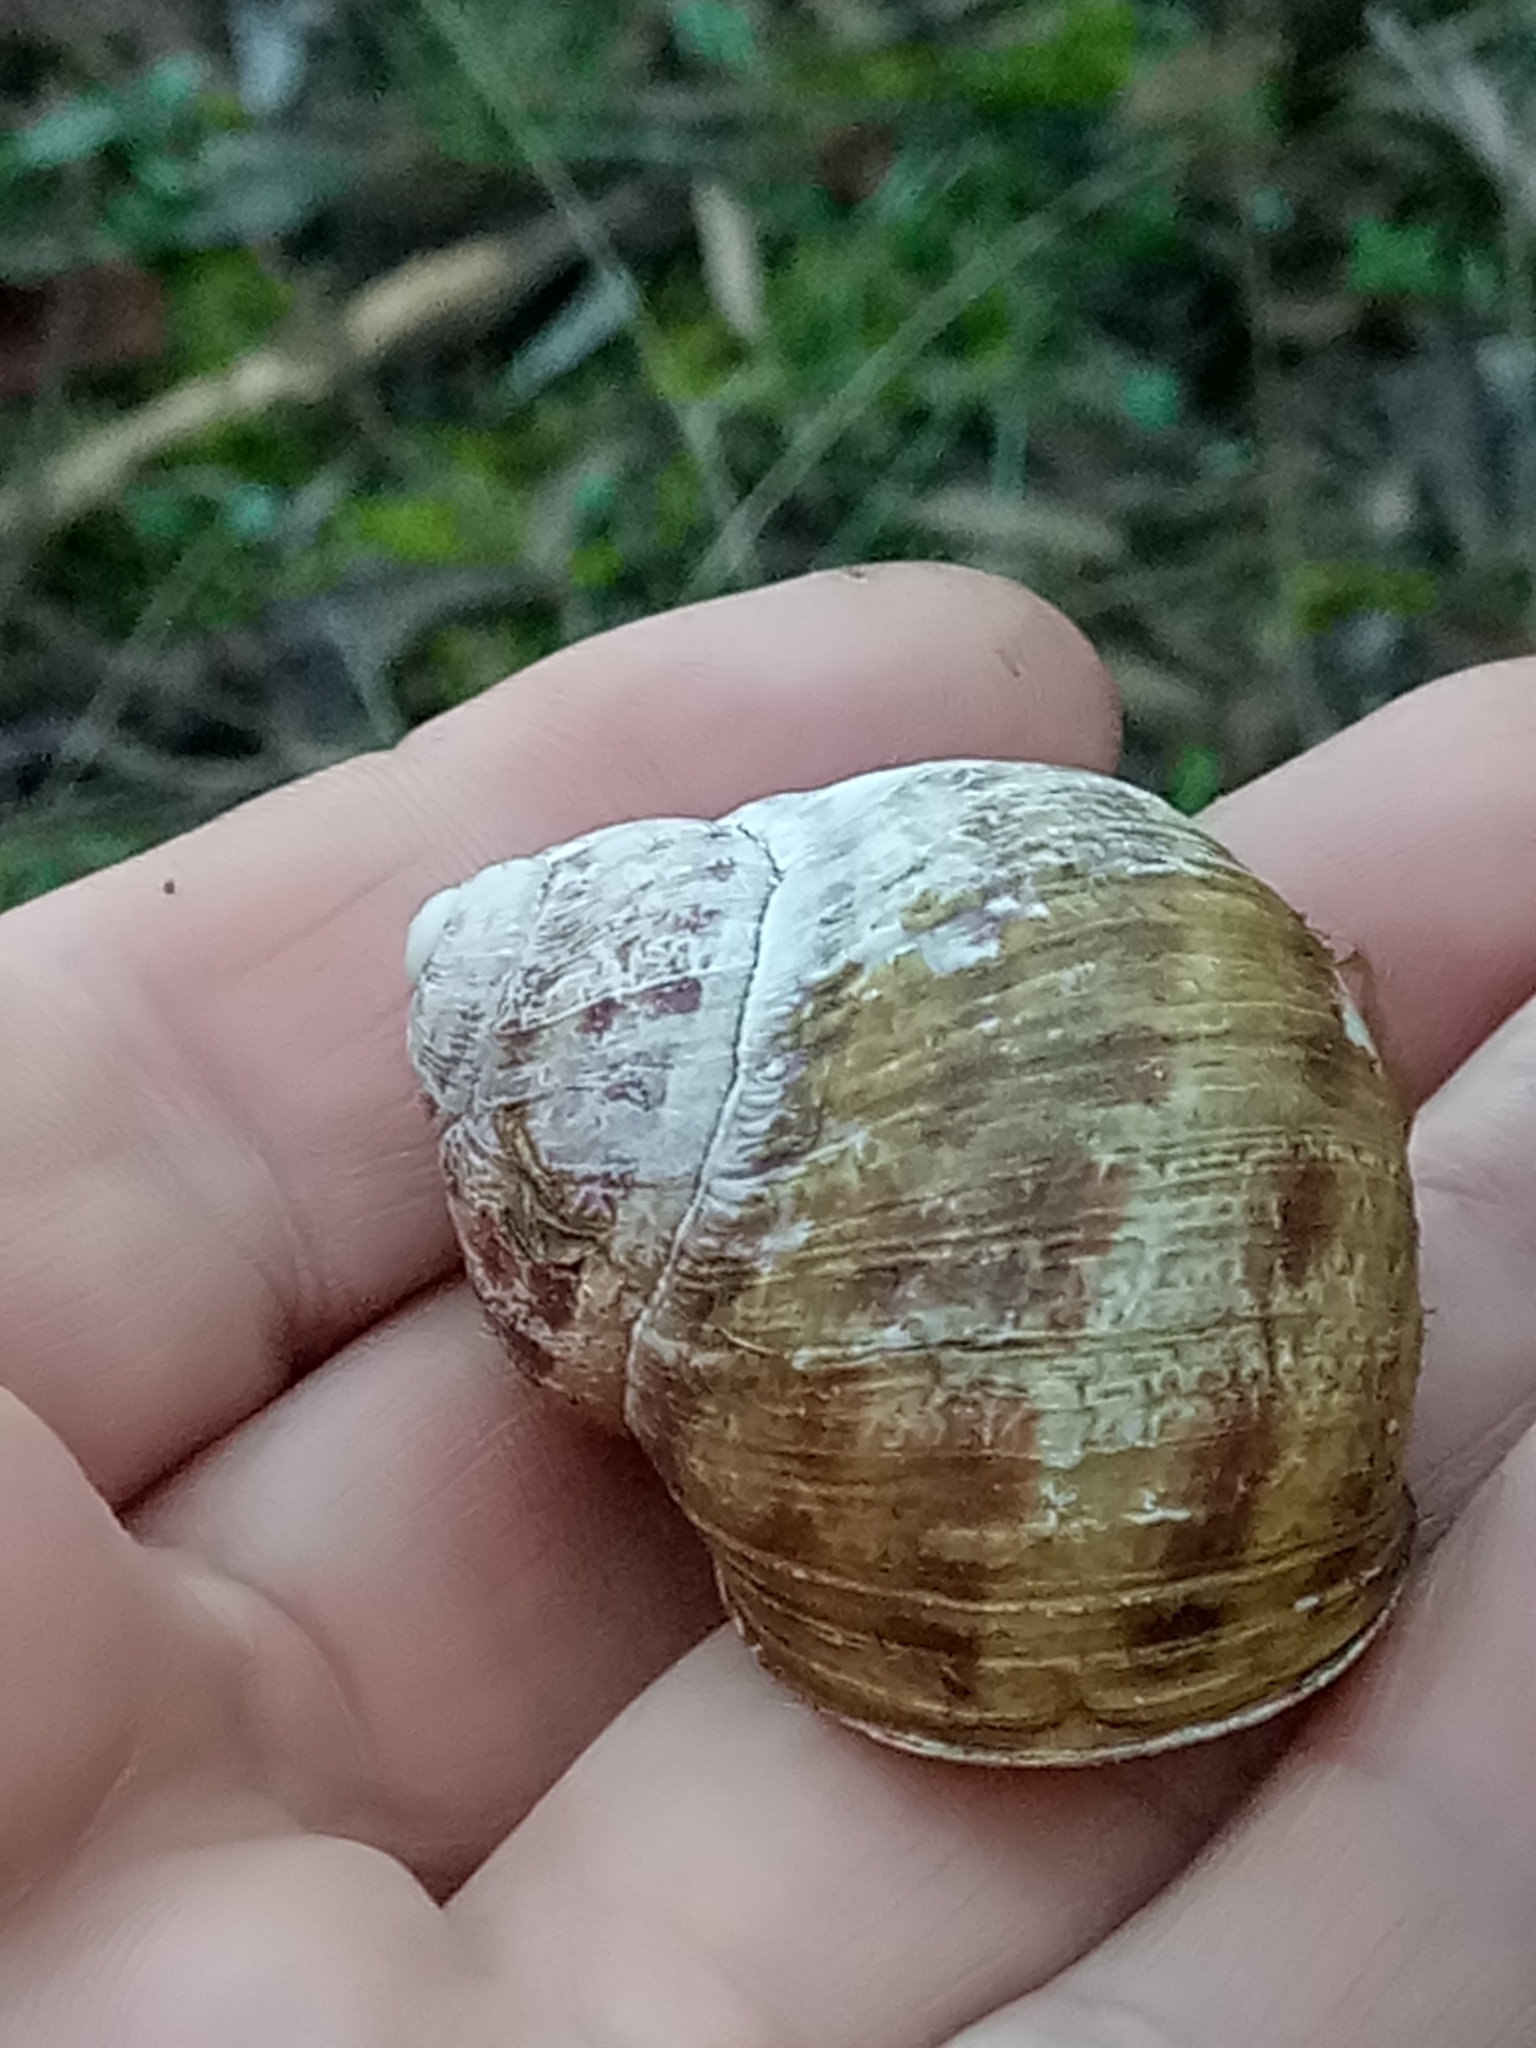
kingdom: Animalia
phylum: Mollusca
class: Gastropoda
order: Stylommatophora
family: Helicidae
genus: Cornu
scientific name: Cornu aspersum
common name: Brown garden snail
